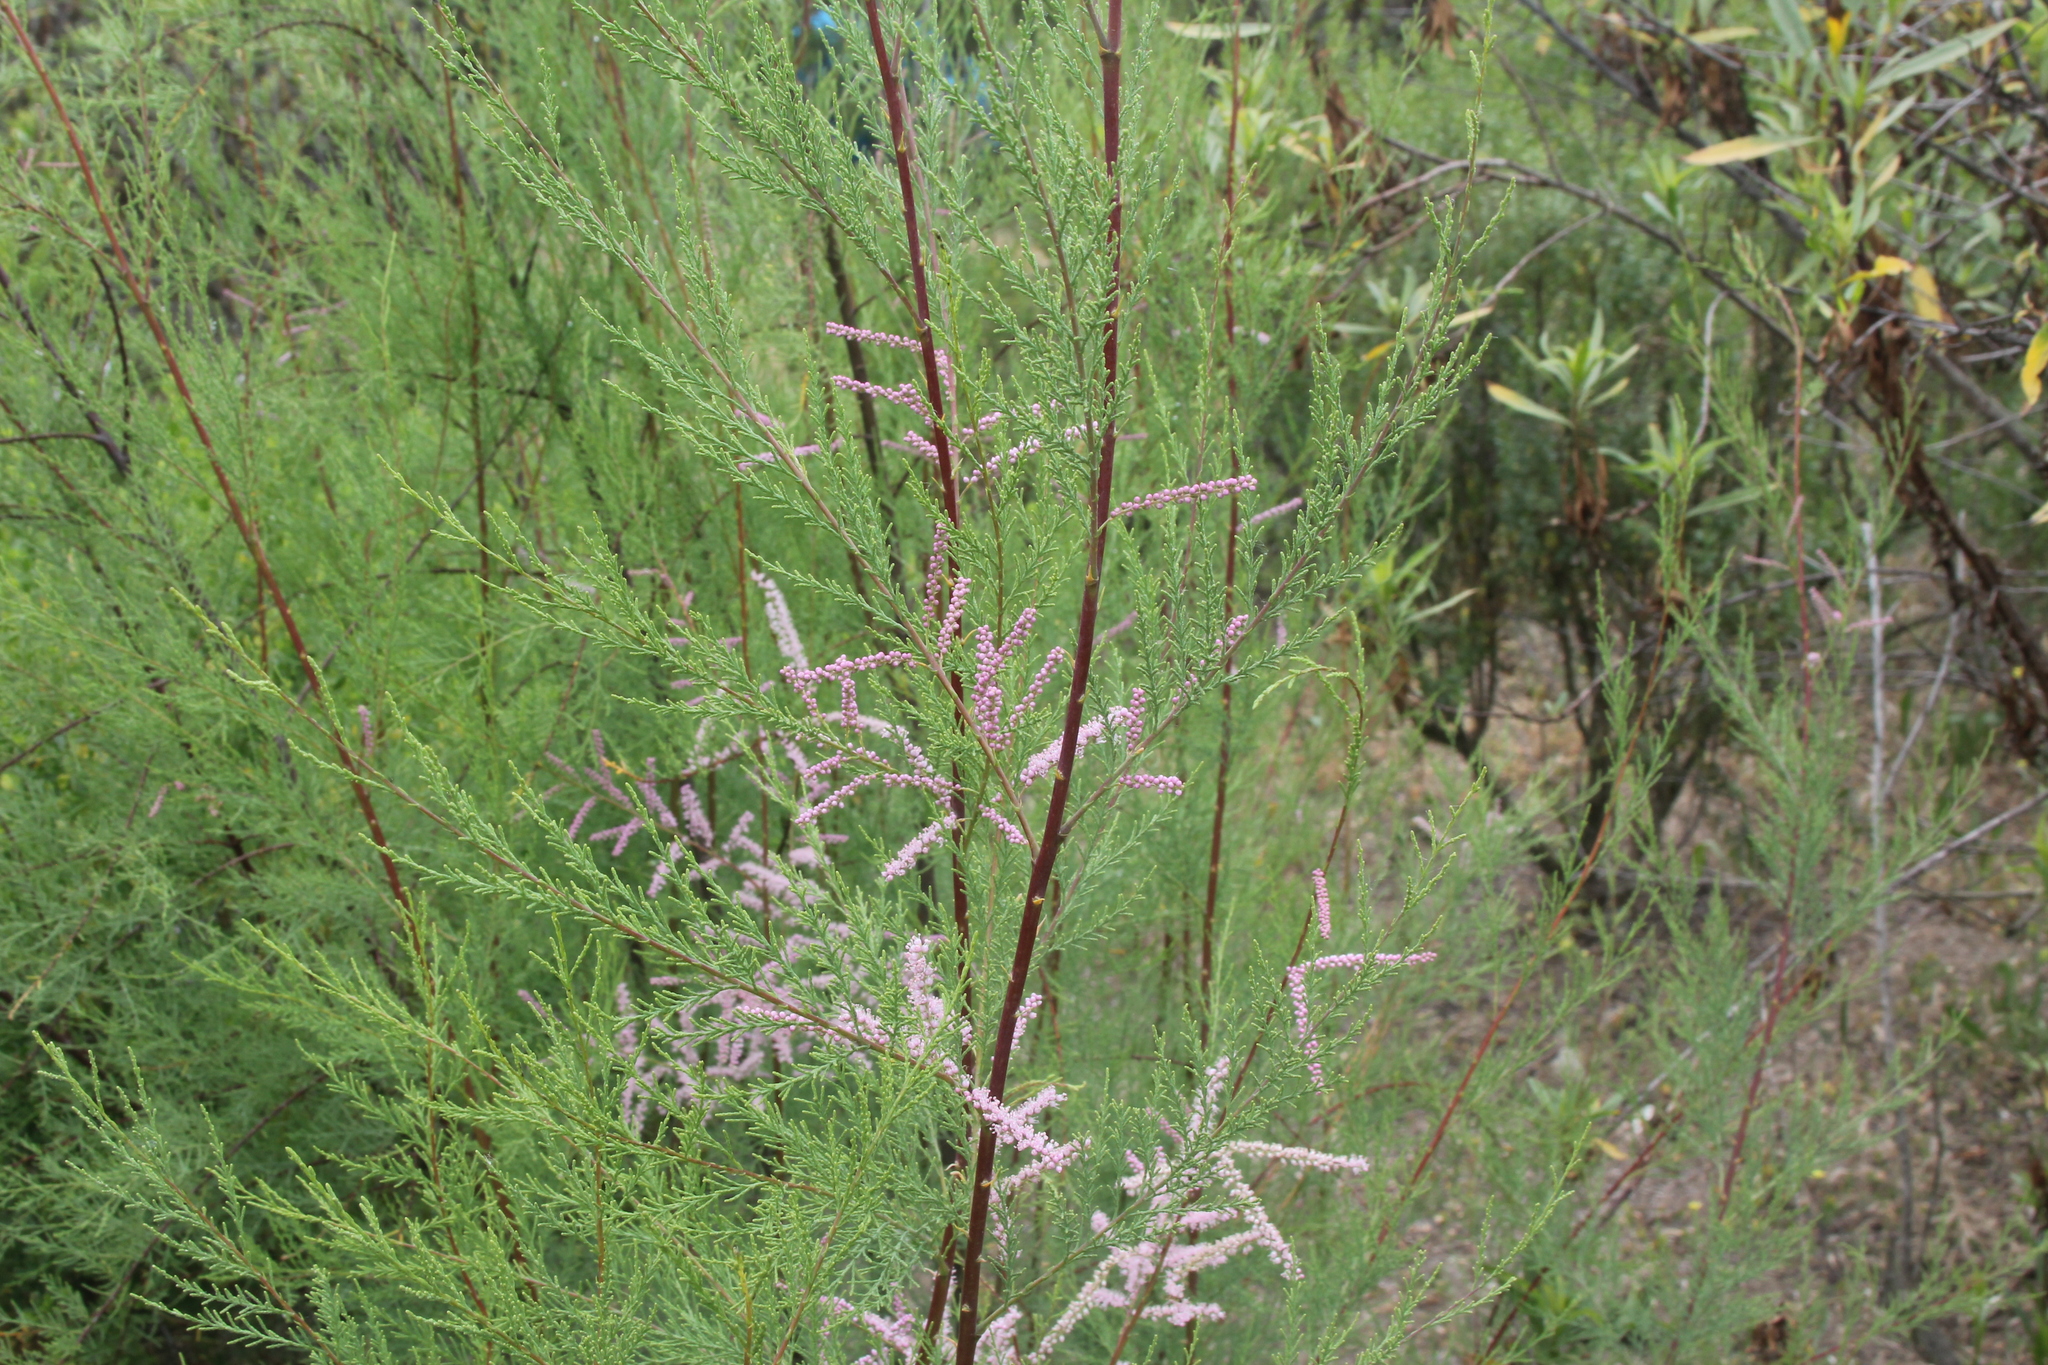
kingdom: Plantae
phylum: Tracheophyta
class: Magnoliopsida
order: Caryophyllales
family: Tamaricaceae
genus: Tamarix
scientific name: Tamarix
